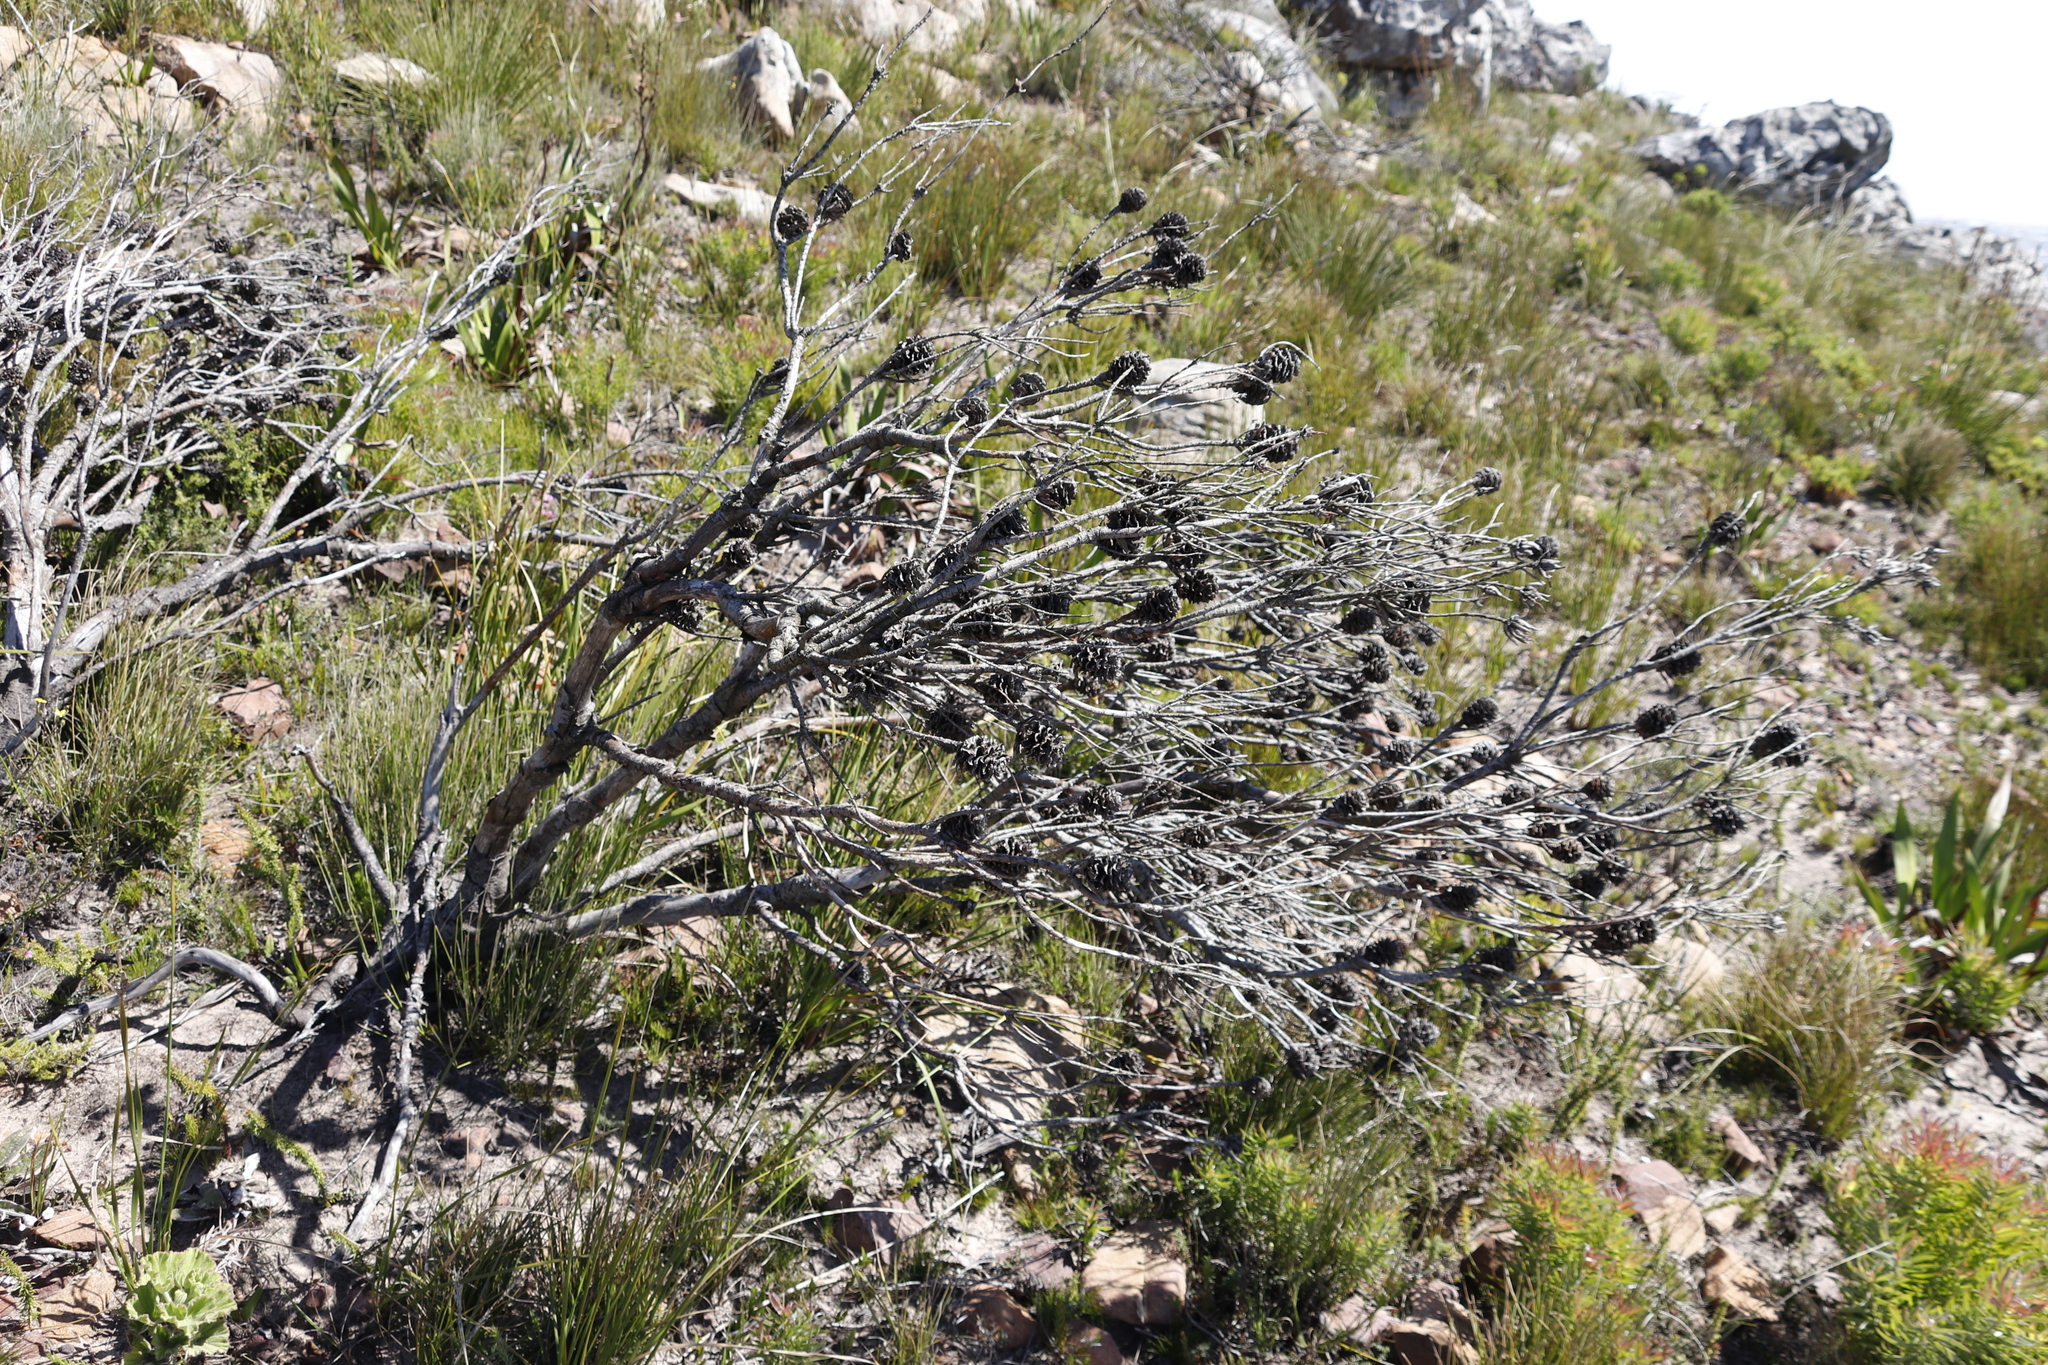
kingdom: Plantae
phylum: Tracheophyta
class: Magnoliopsida
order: Proteales
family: Proteaceae
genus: Leucadendron
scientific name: Leucadendron xanthoconus
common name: Sickle-leaf conebush
